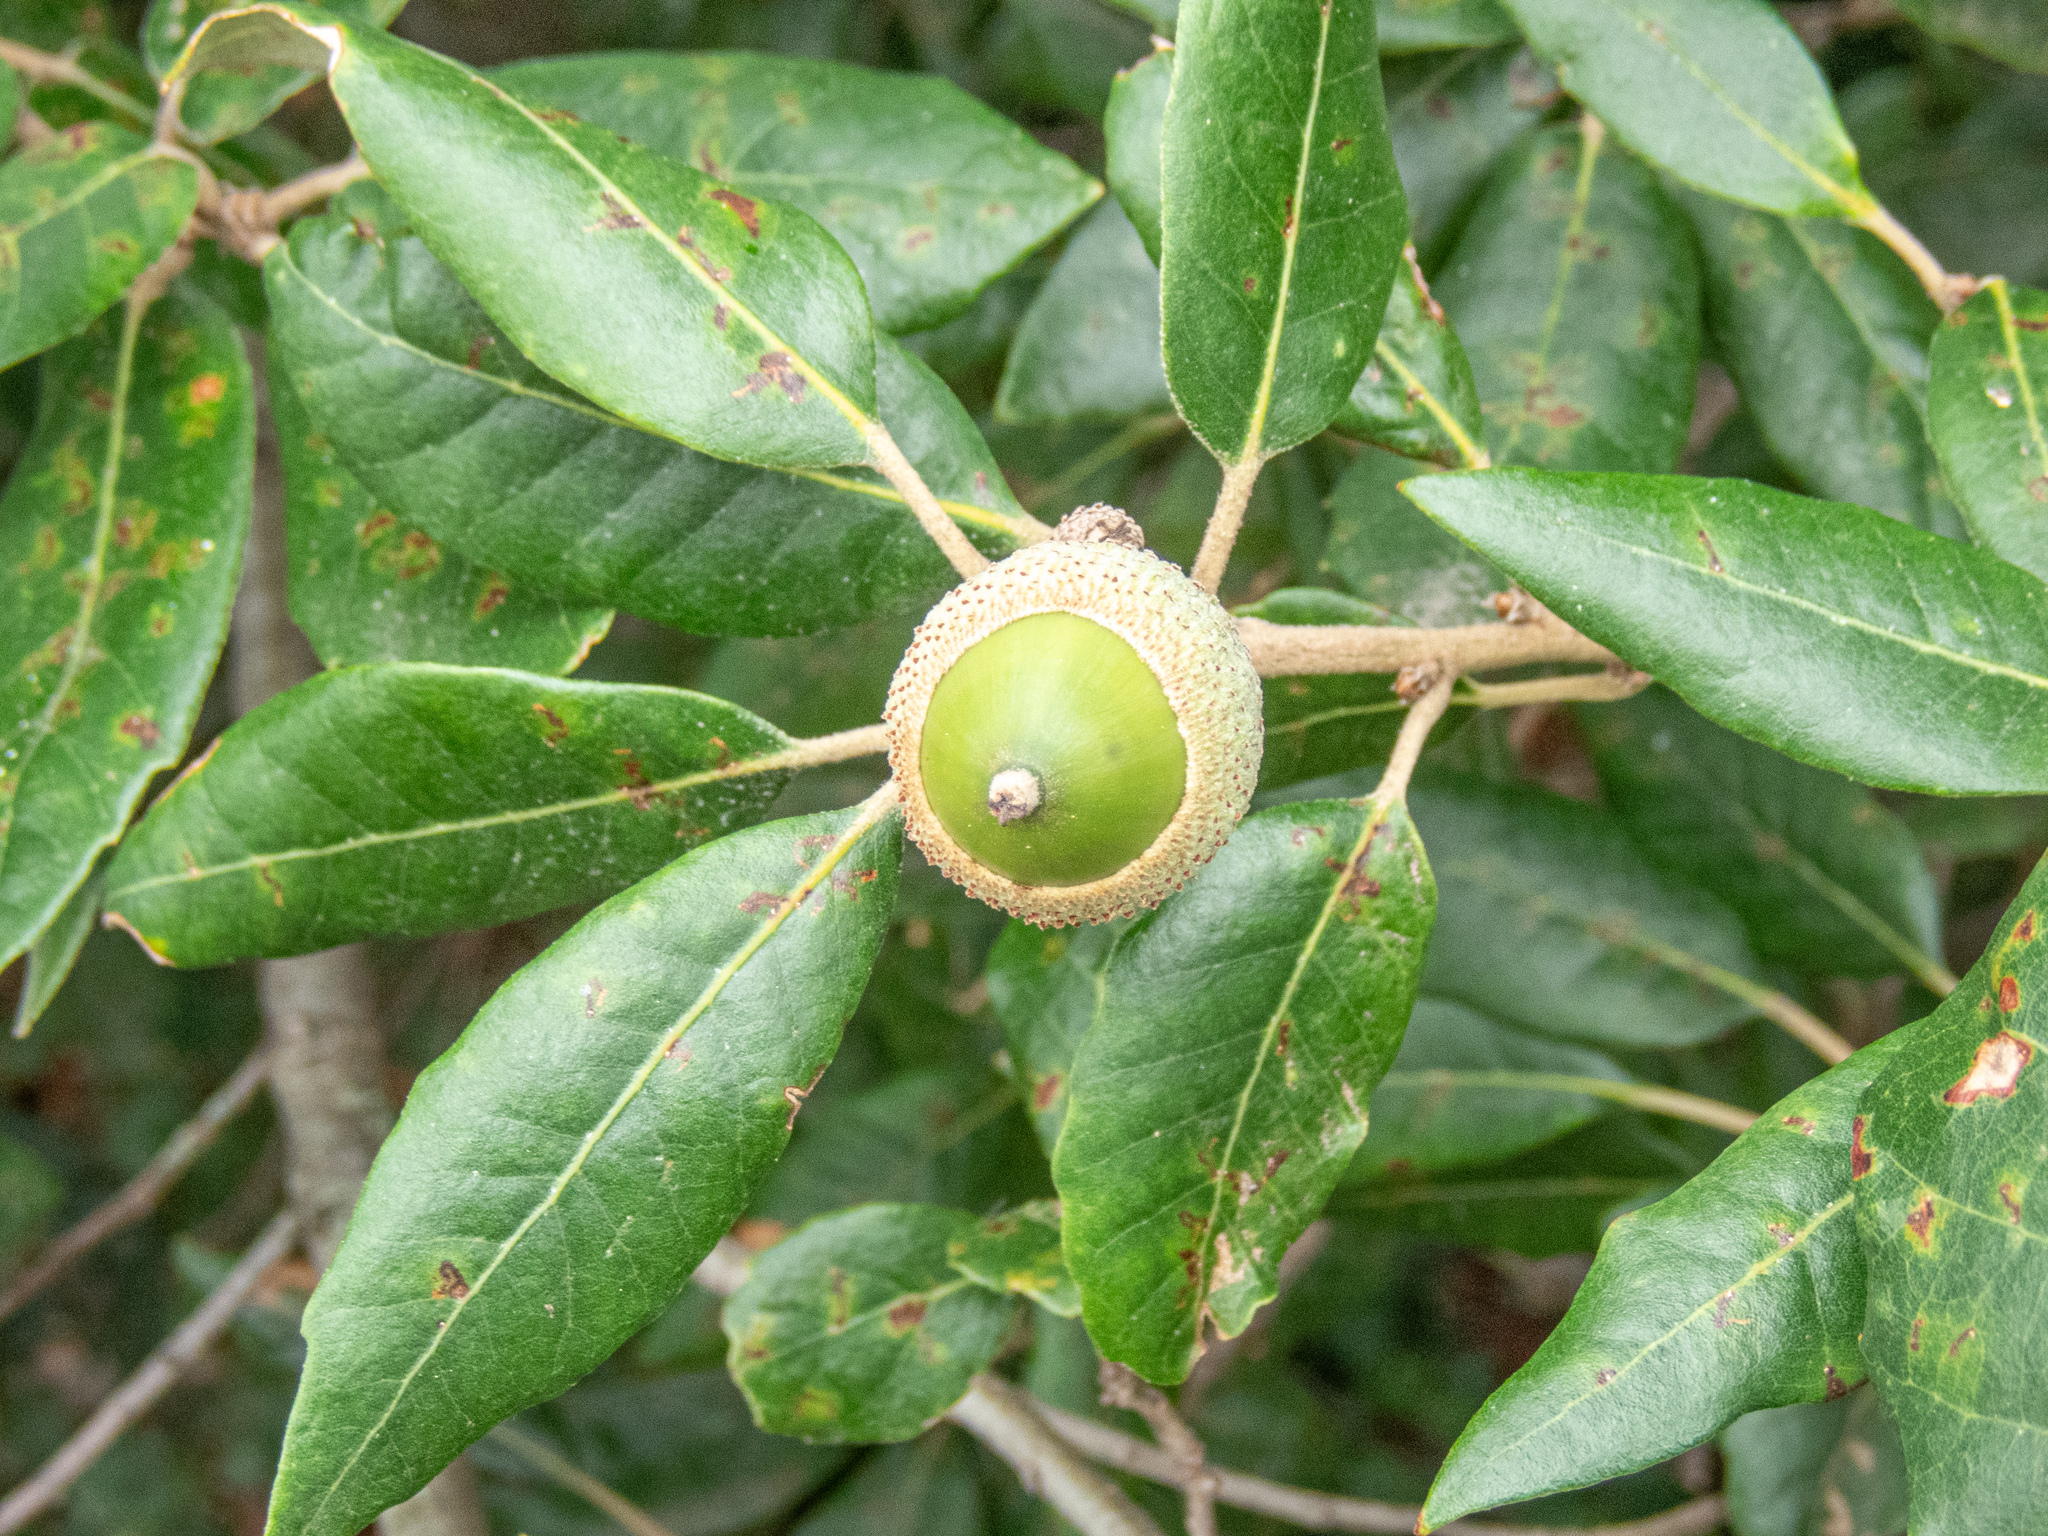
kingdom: Plantae
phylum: Tracheophyta
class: Magnoliopsida
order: Fagales
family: Fagaceae
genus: Quercus
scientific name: Quercus ilex
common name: Evergreen oak
